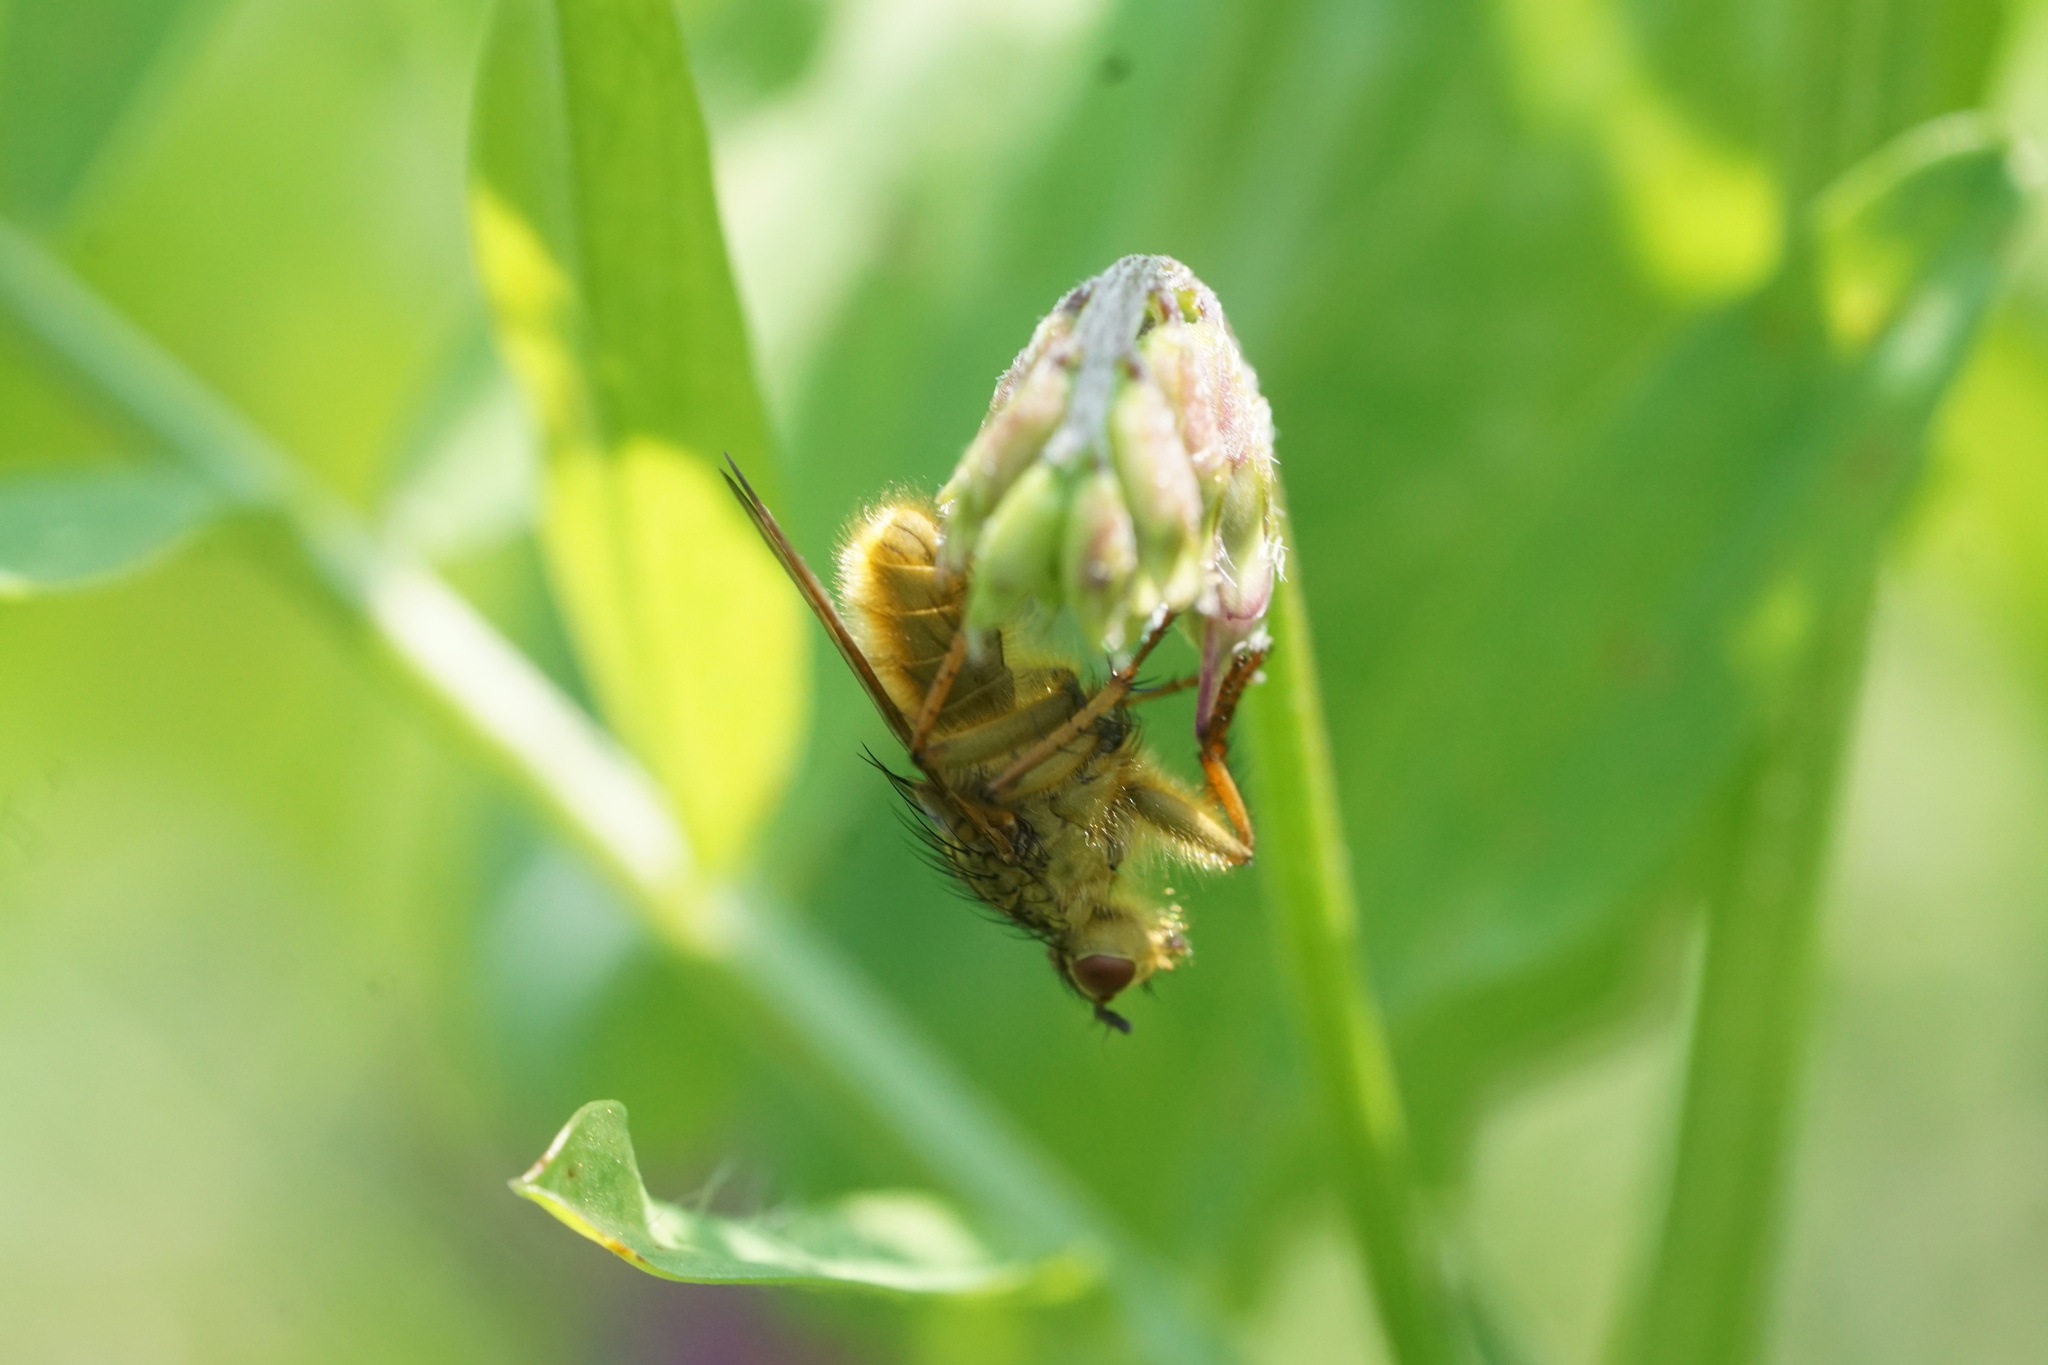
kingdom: Animalia
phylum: Arthropoda
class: Insecta
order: Diptera
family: Scathophagidae
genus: Scathophaga
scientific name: Scathophaga stercoraria
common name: Yellow dung fly
